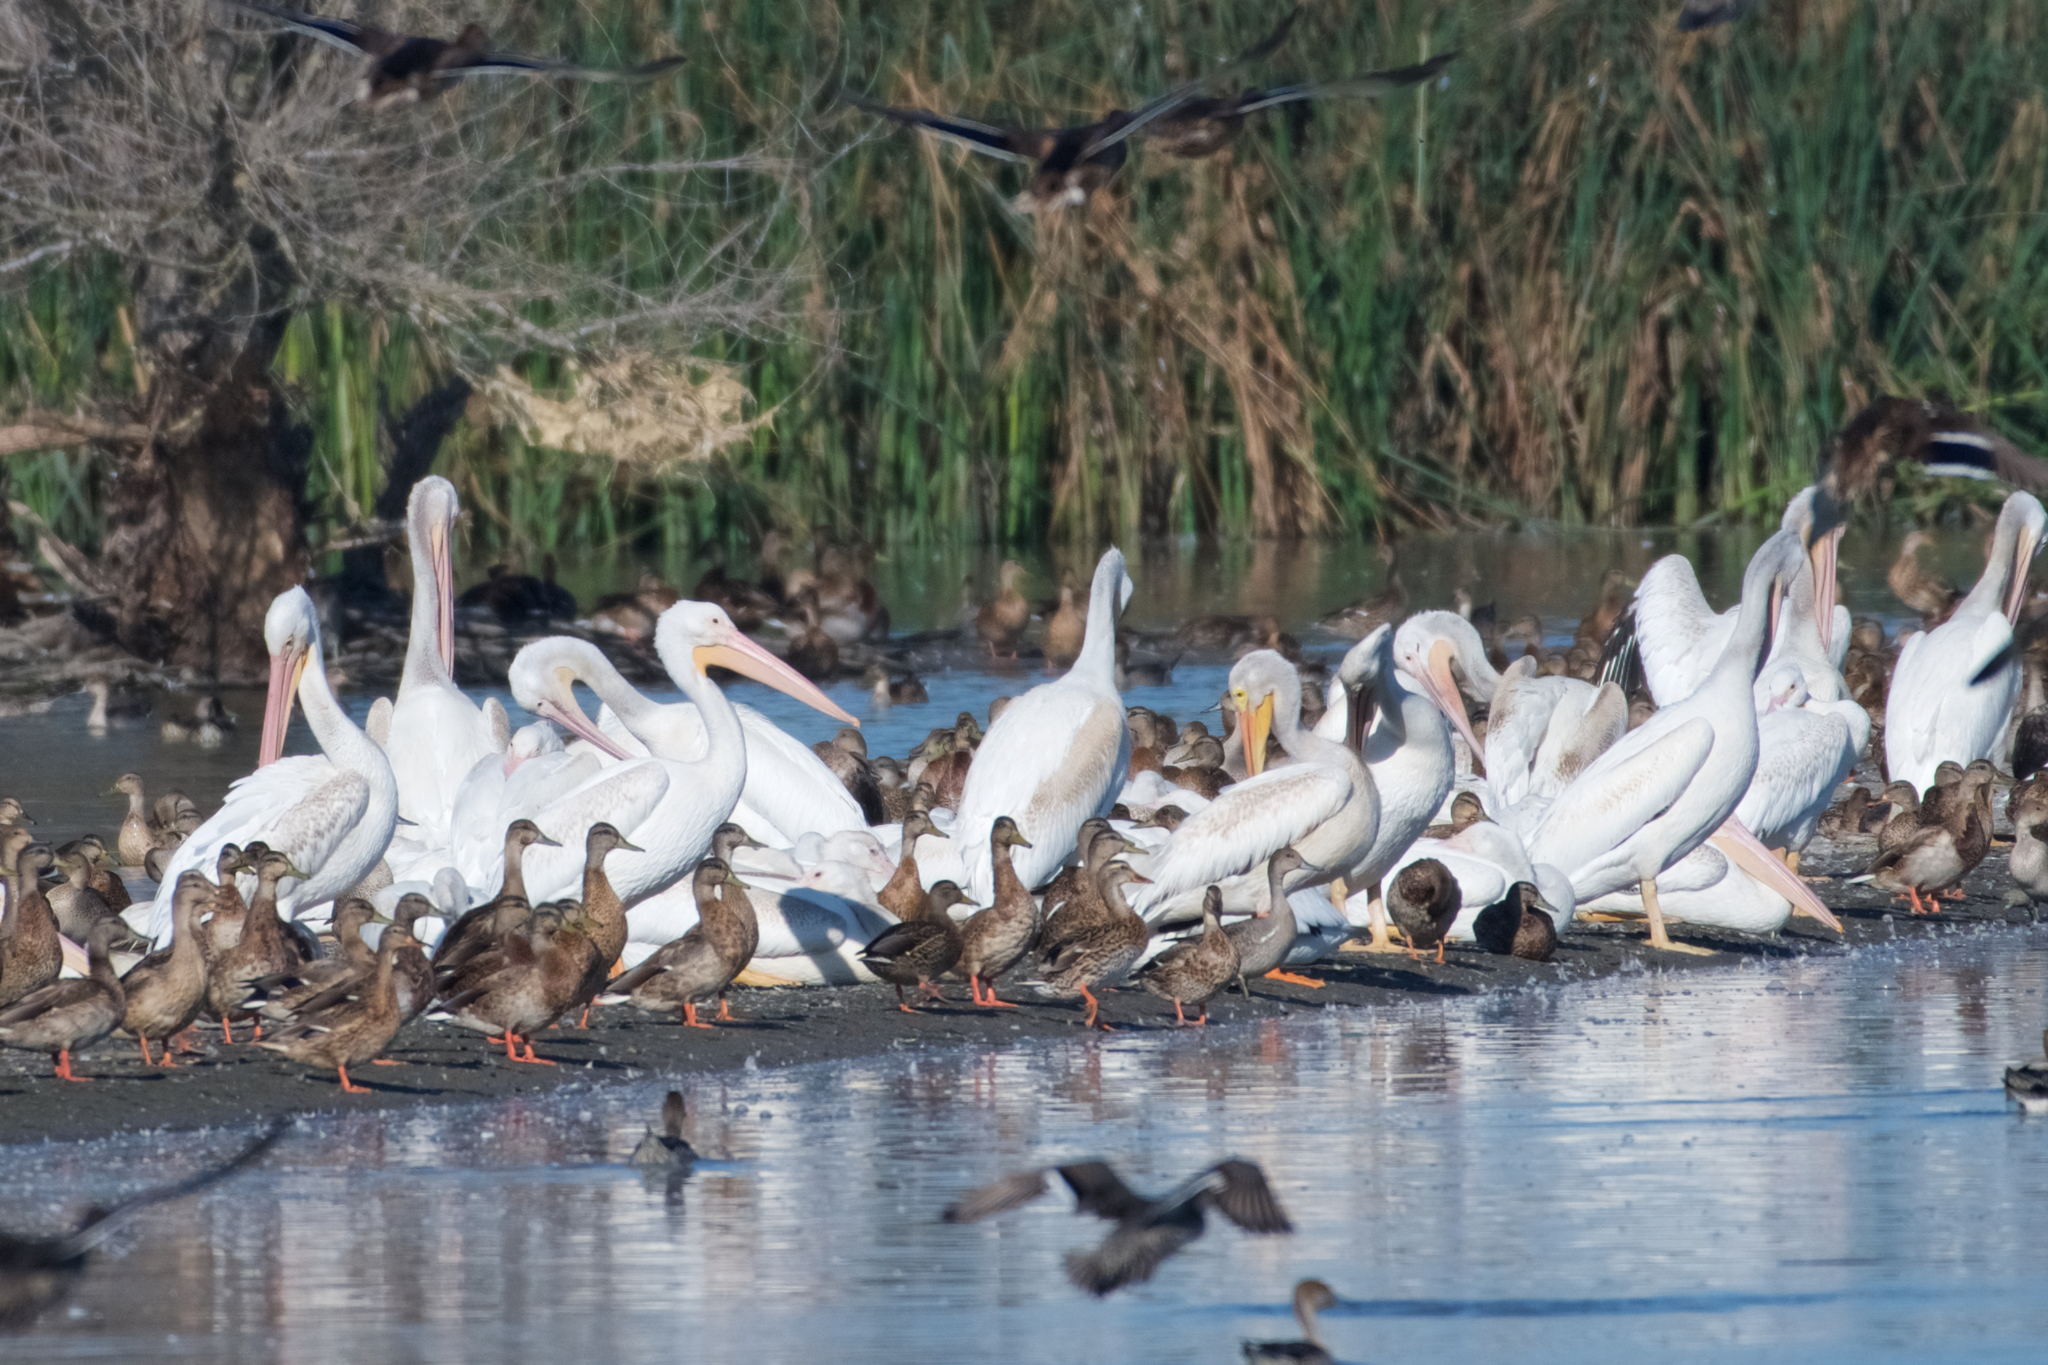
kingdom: Animalia
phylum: Chordata
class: Aves
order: Pelecaniformes
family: Pelecanidae
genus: Pelecanus
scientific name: Pelecanus erythrorhynchos
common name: American white pelican
